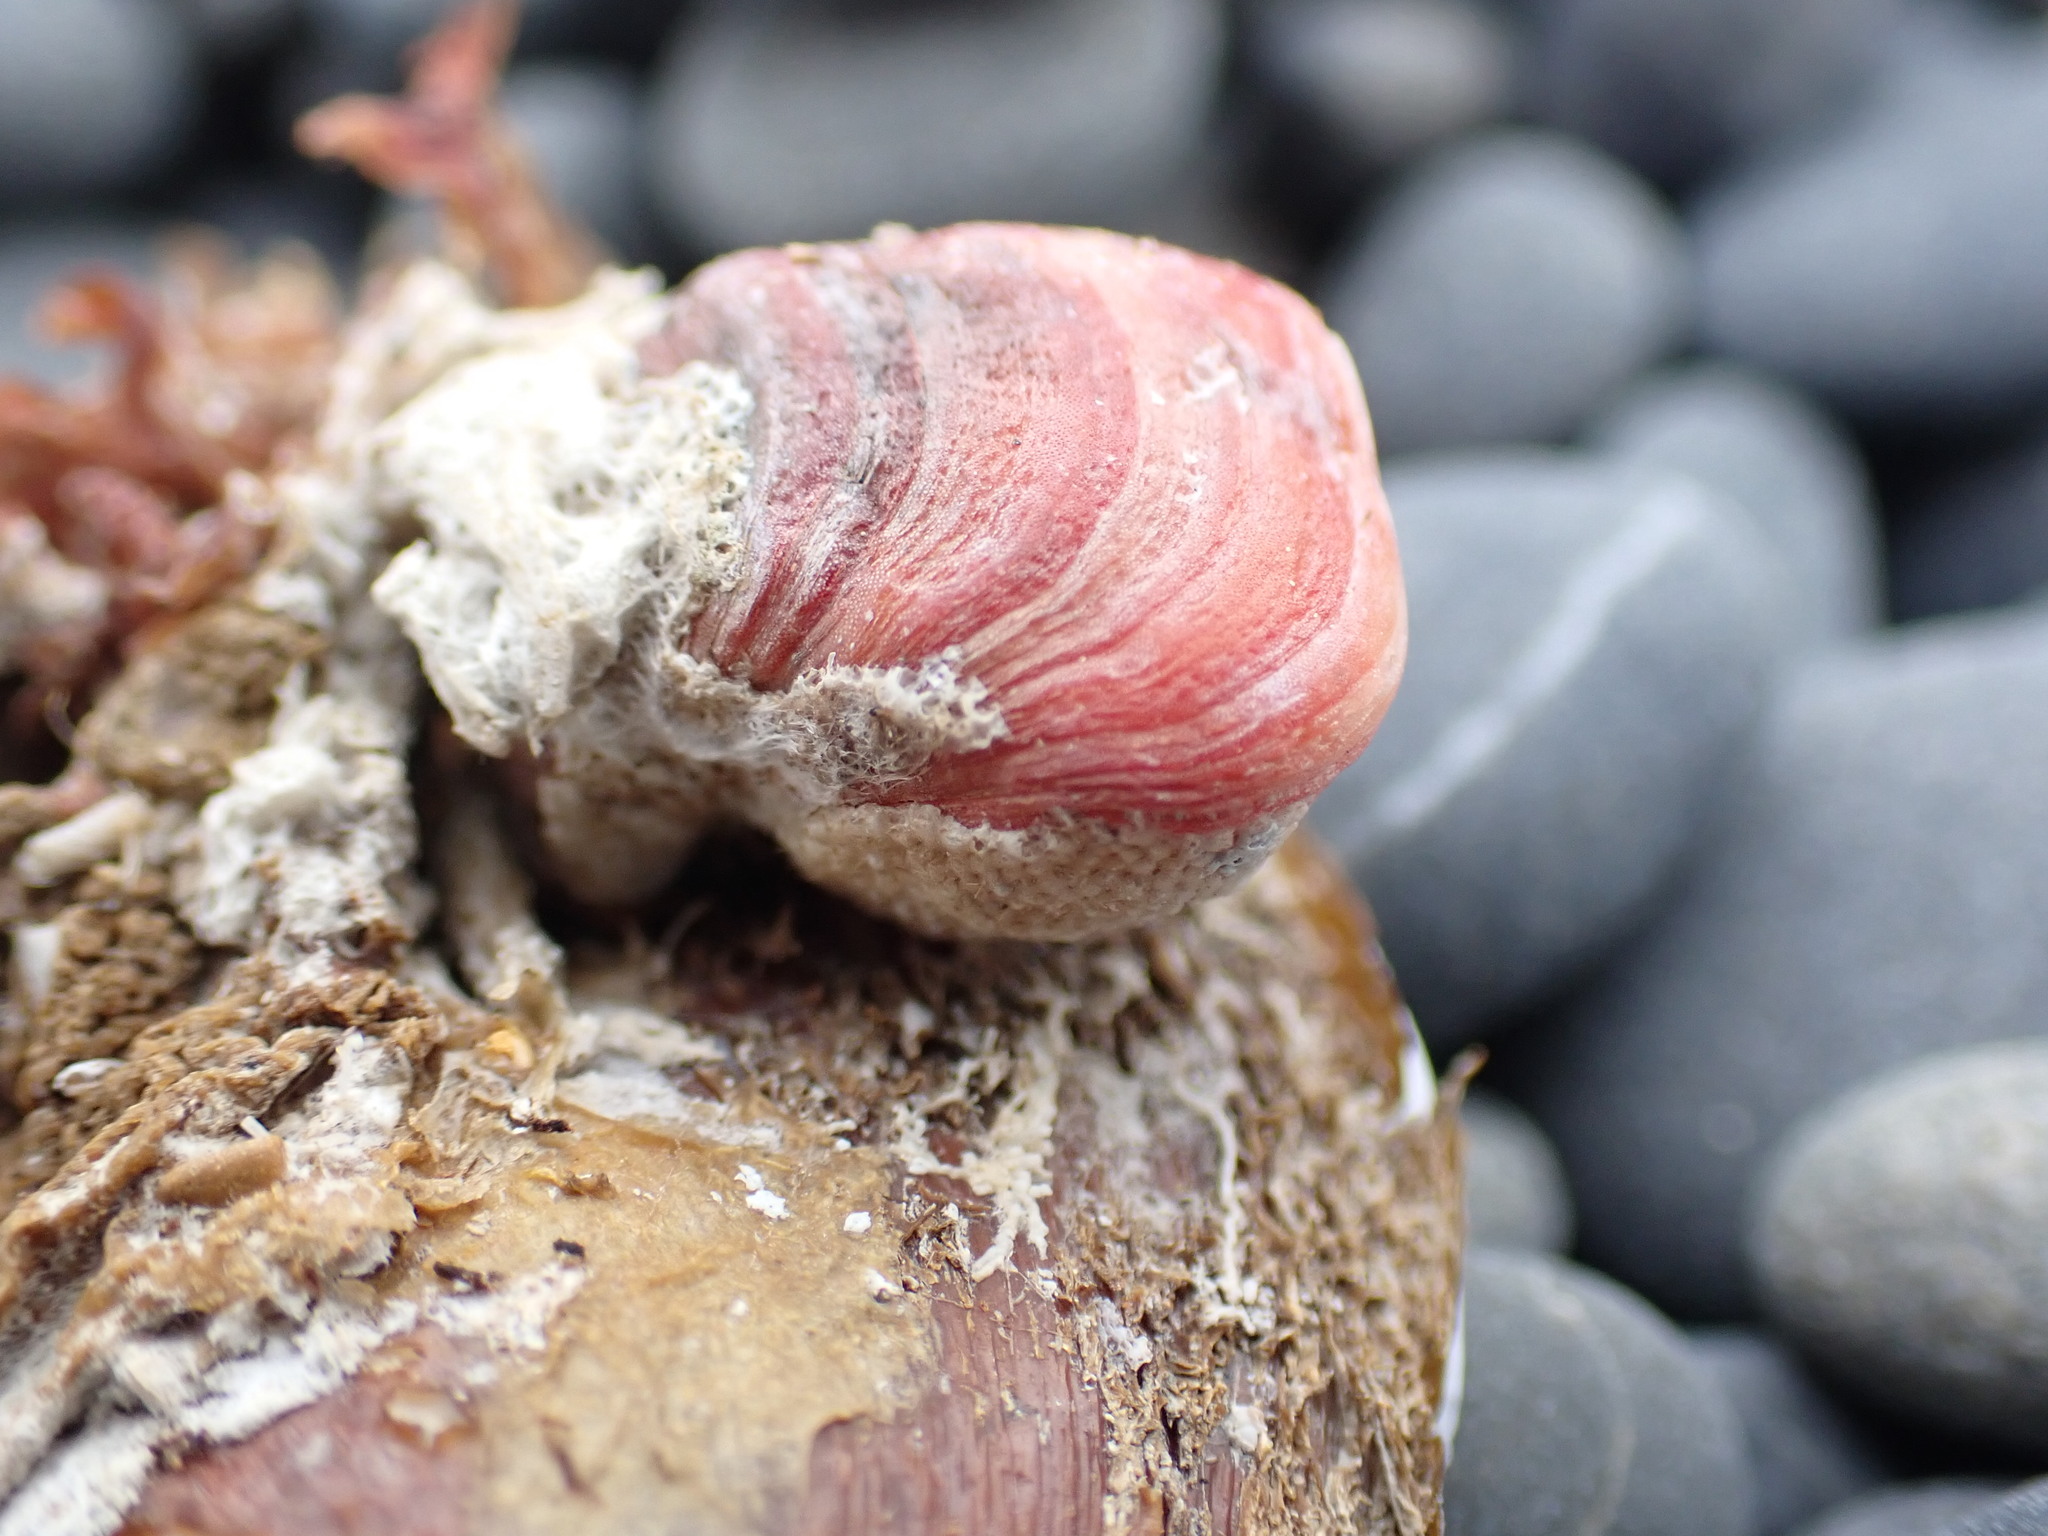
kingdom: Animalia
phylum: Brachiopoda
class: Rhynchonellata
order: Terebratulida
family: Terebratellidae
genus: Calloria
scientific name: Calloria inconspicua
